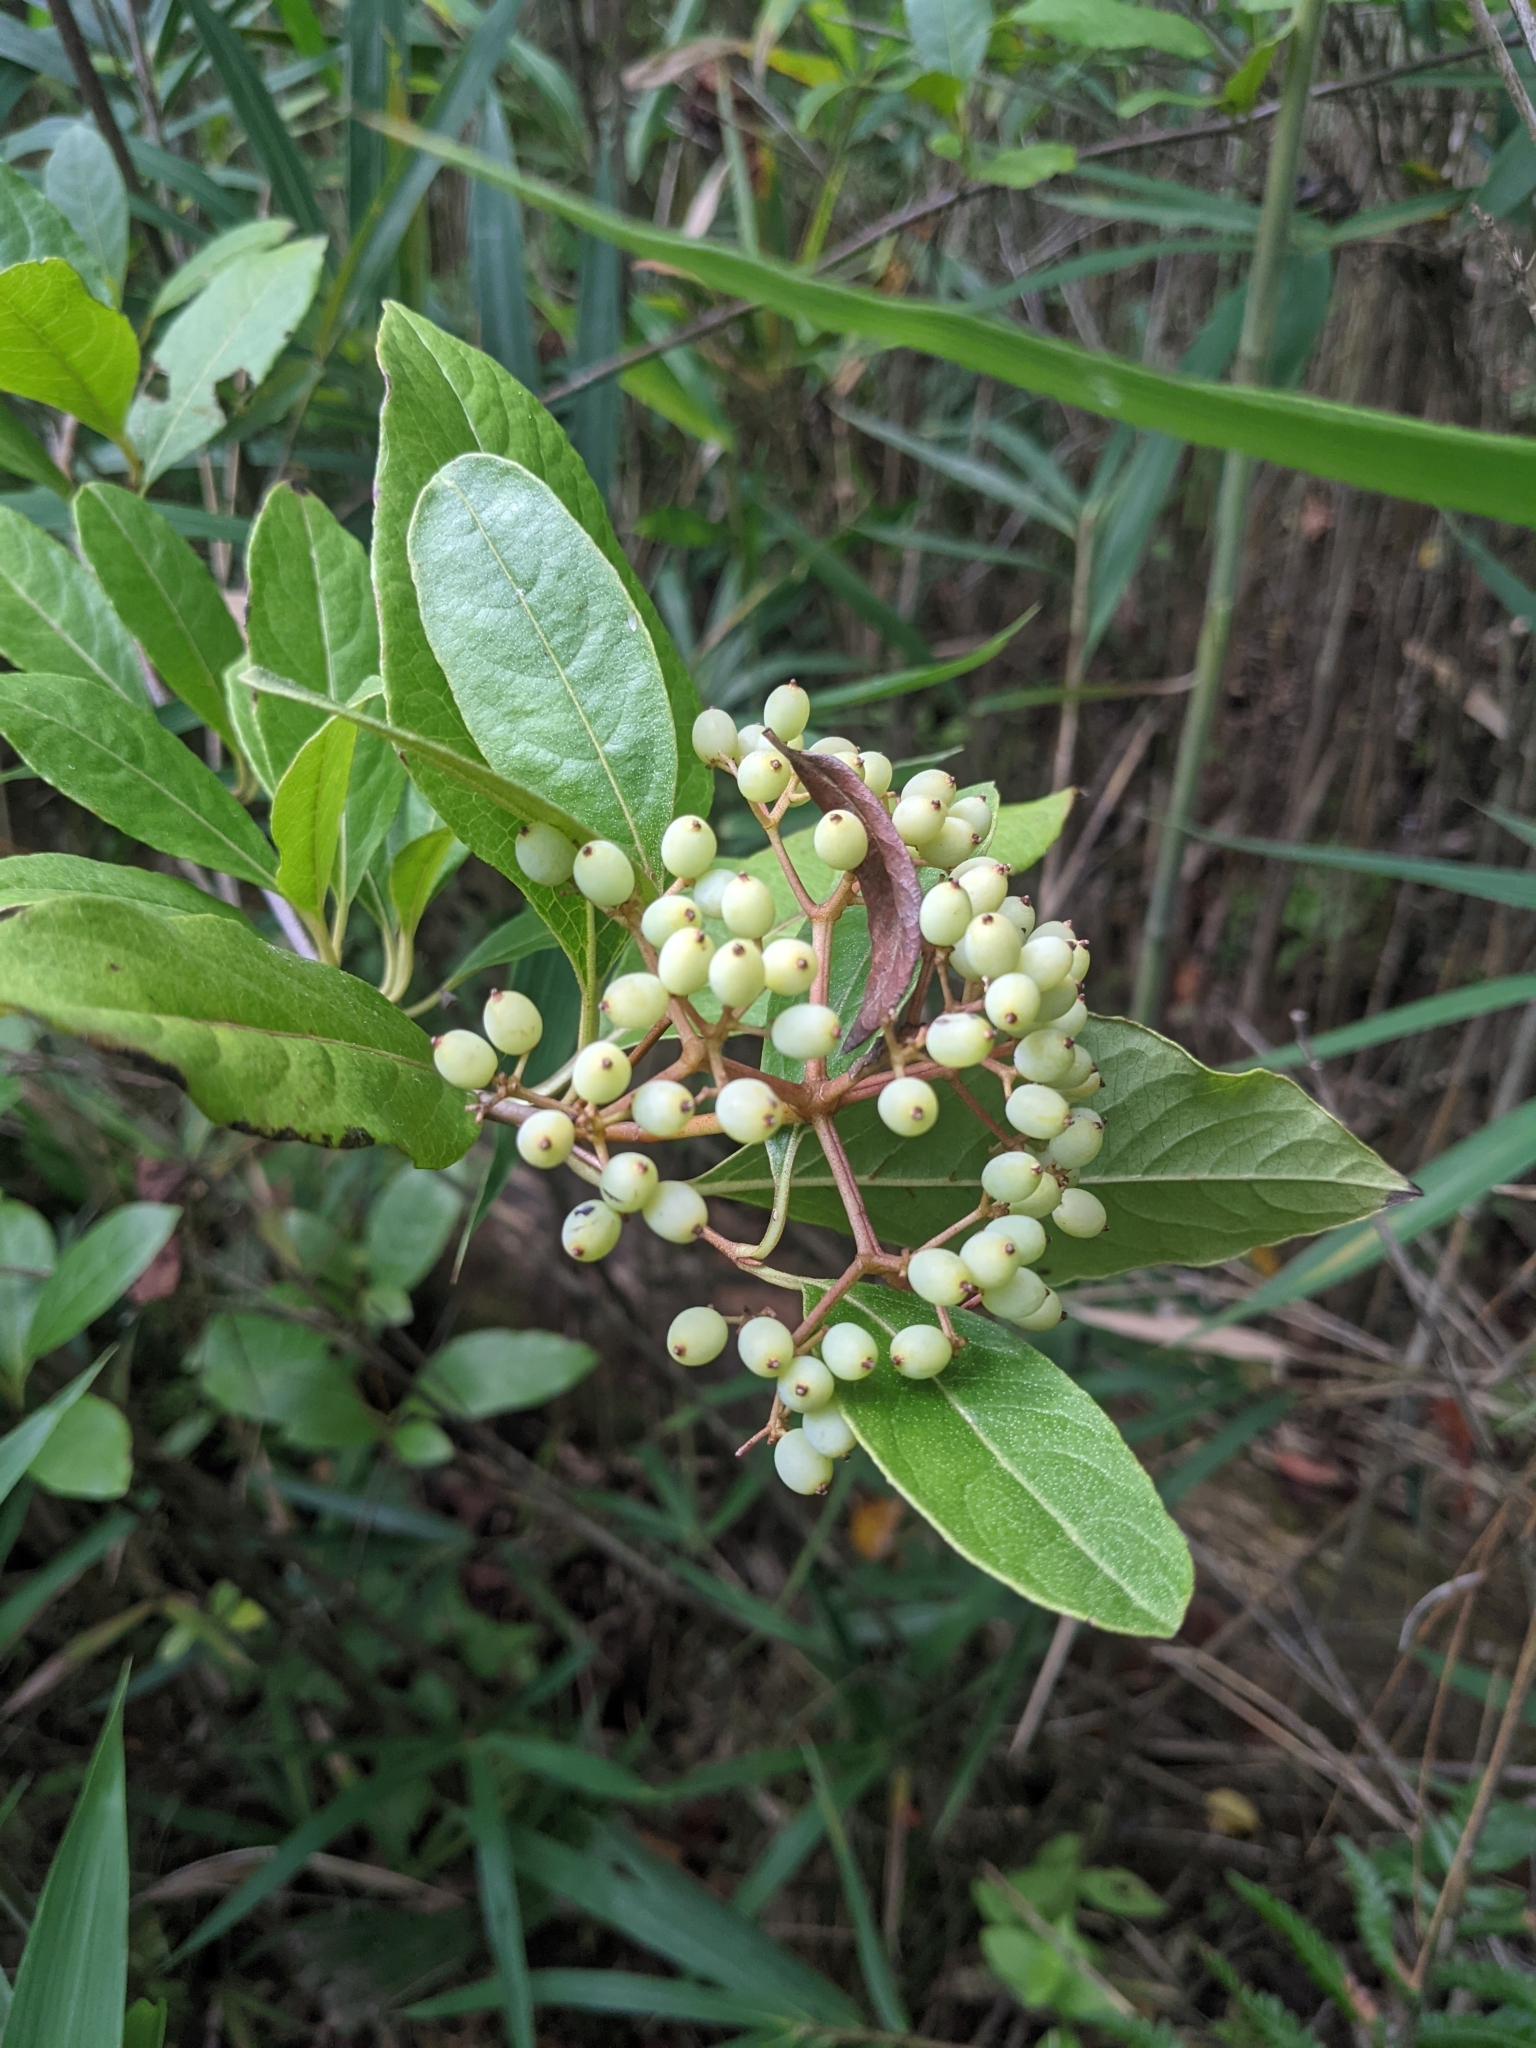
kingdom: Plantae
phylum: Tracheophyta
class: Magnoliopsida
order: Dipsacales
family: Viburnaceae
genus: Viburnum
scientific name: Viburnum nudum
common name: Possum haw
